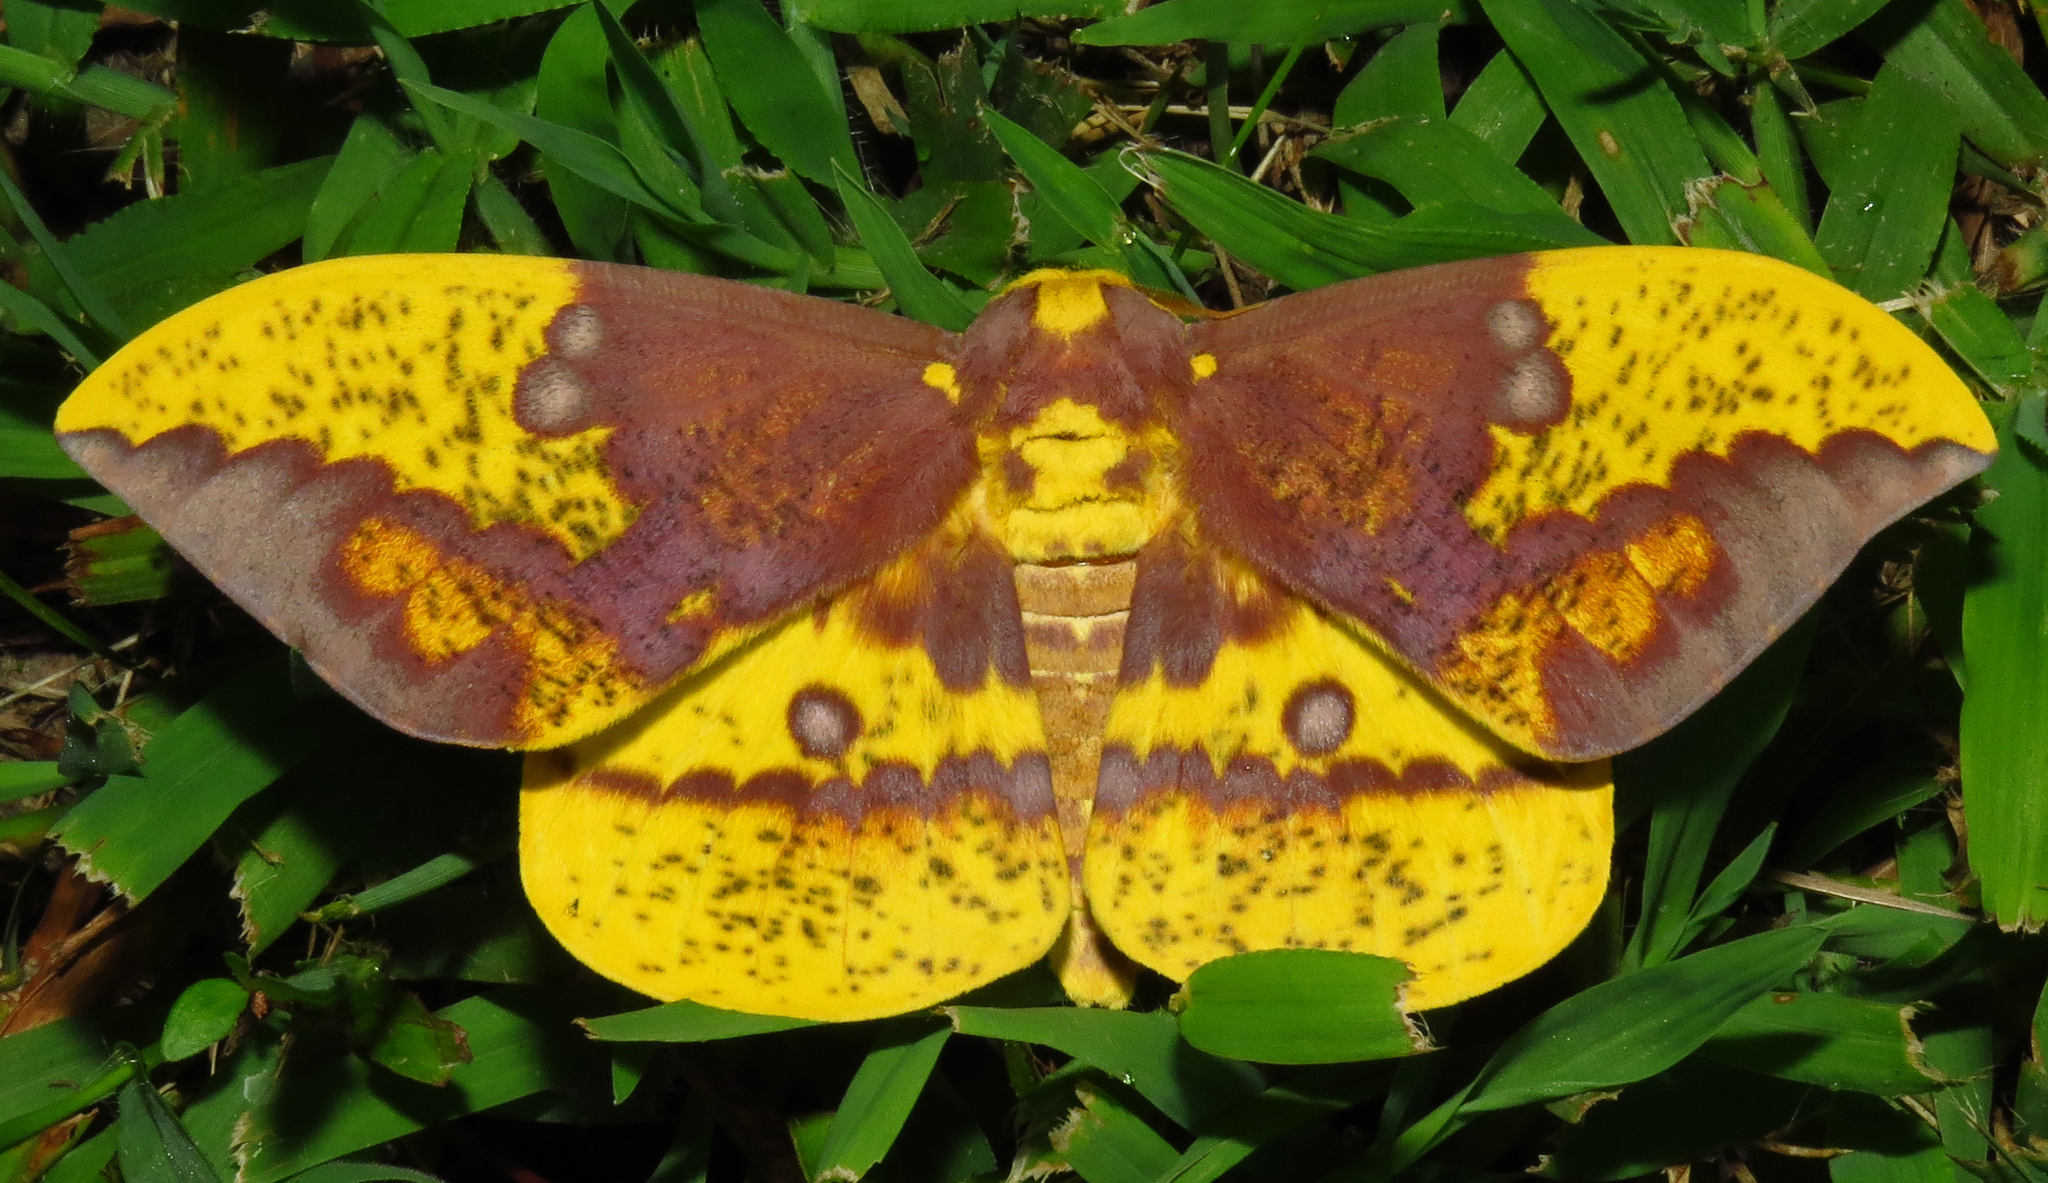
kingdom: Animalia
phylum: Arthropoda
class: Insecta
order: Lepidoptera
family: Saturniidae
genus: Eacles
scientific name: Eacles imperialis
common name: Imperial moth
